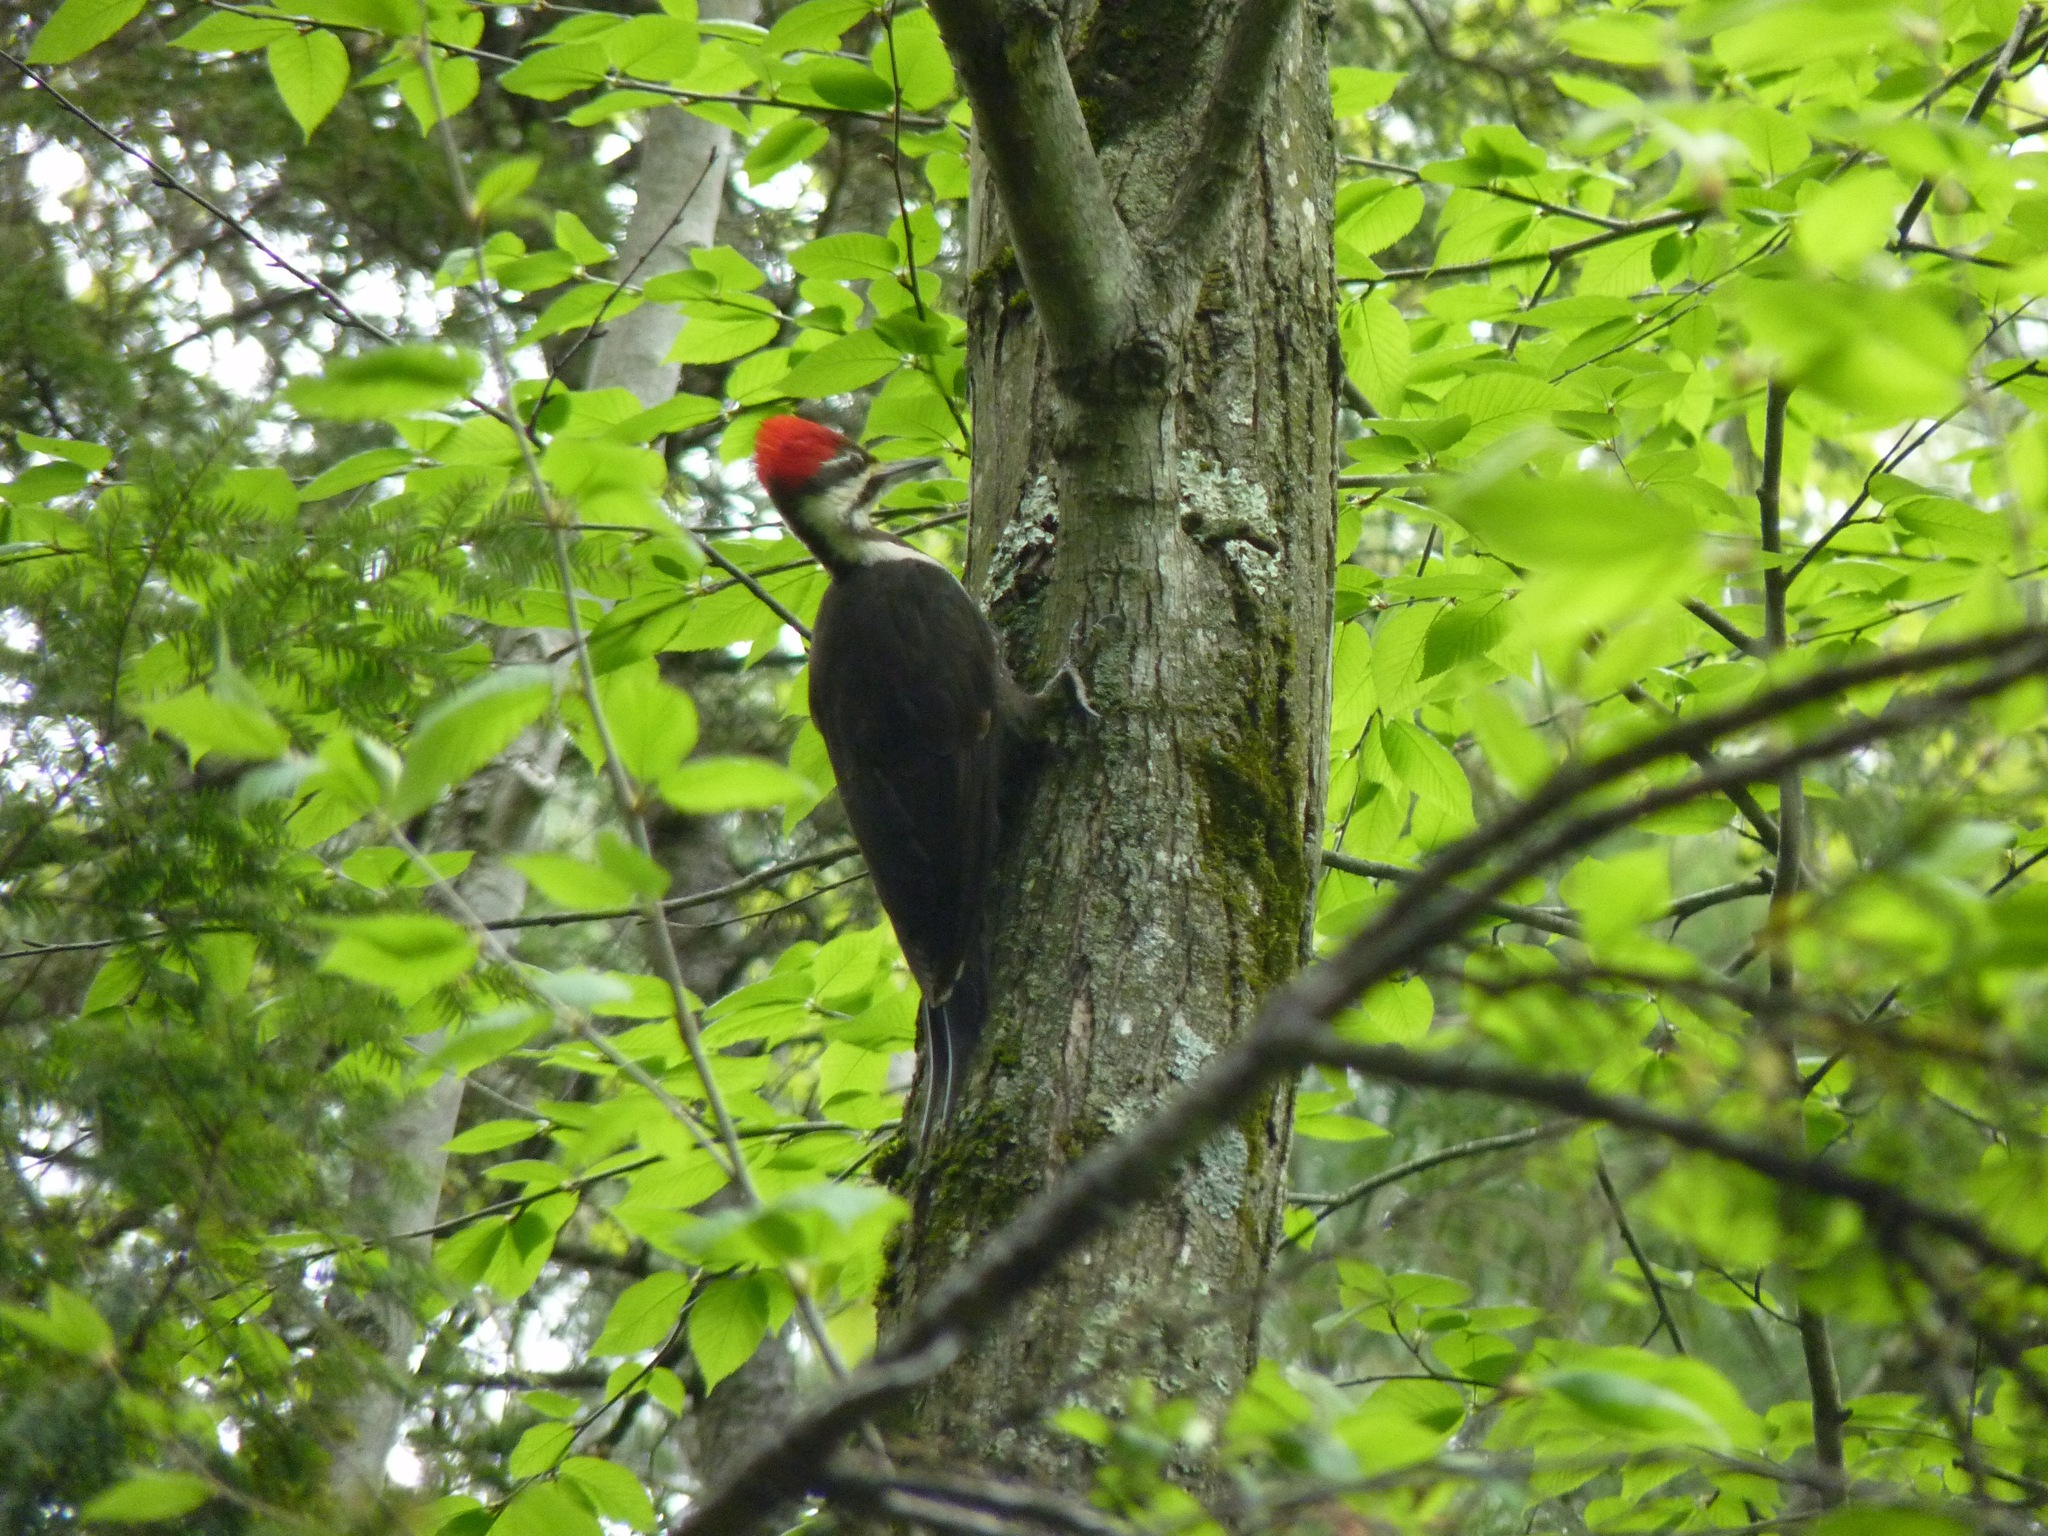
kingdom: Animalia
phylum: Chordata
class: Aves
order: Piciformes
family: Picidae
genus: Dryocopus
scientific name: Dryocopus pileatus
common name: Pileated woodpecker
